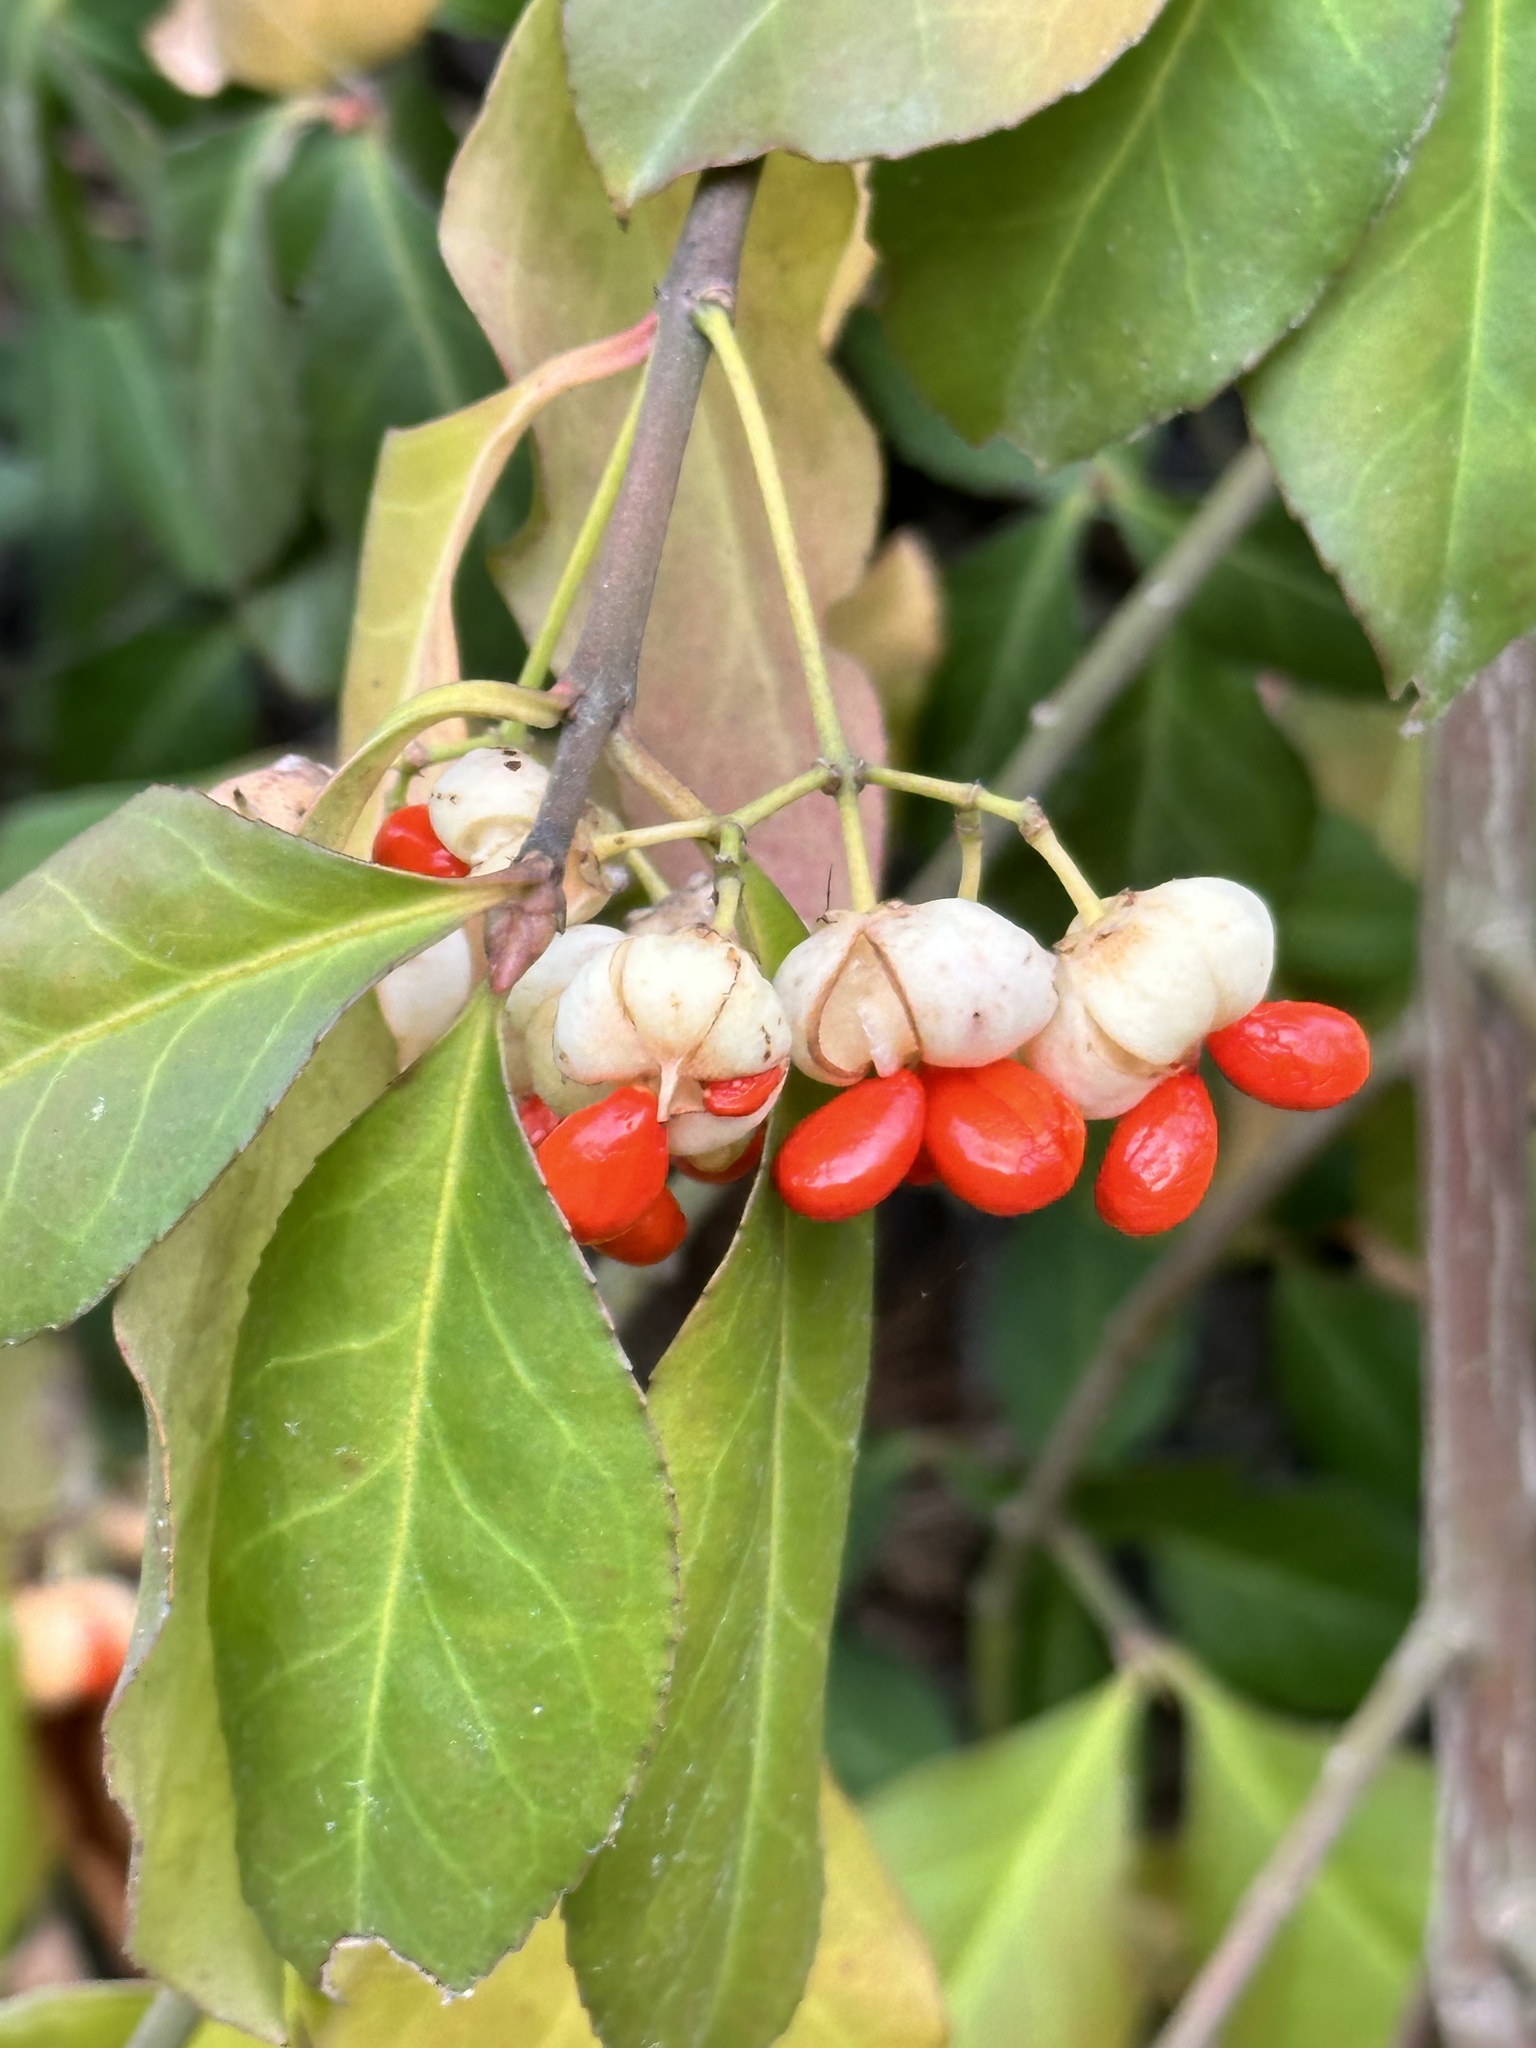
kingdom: Plantae
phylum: Tracheophyta
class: Magnoliopsida
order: Celastrales
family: Celastraceae
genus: Euonymus
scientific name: Euonymus japonicus
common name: Japanese spindletree
